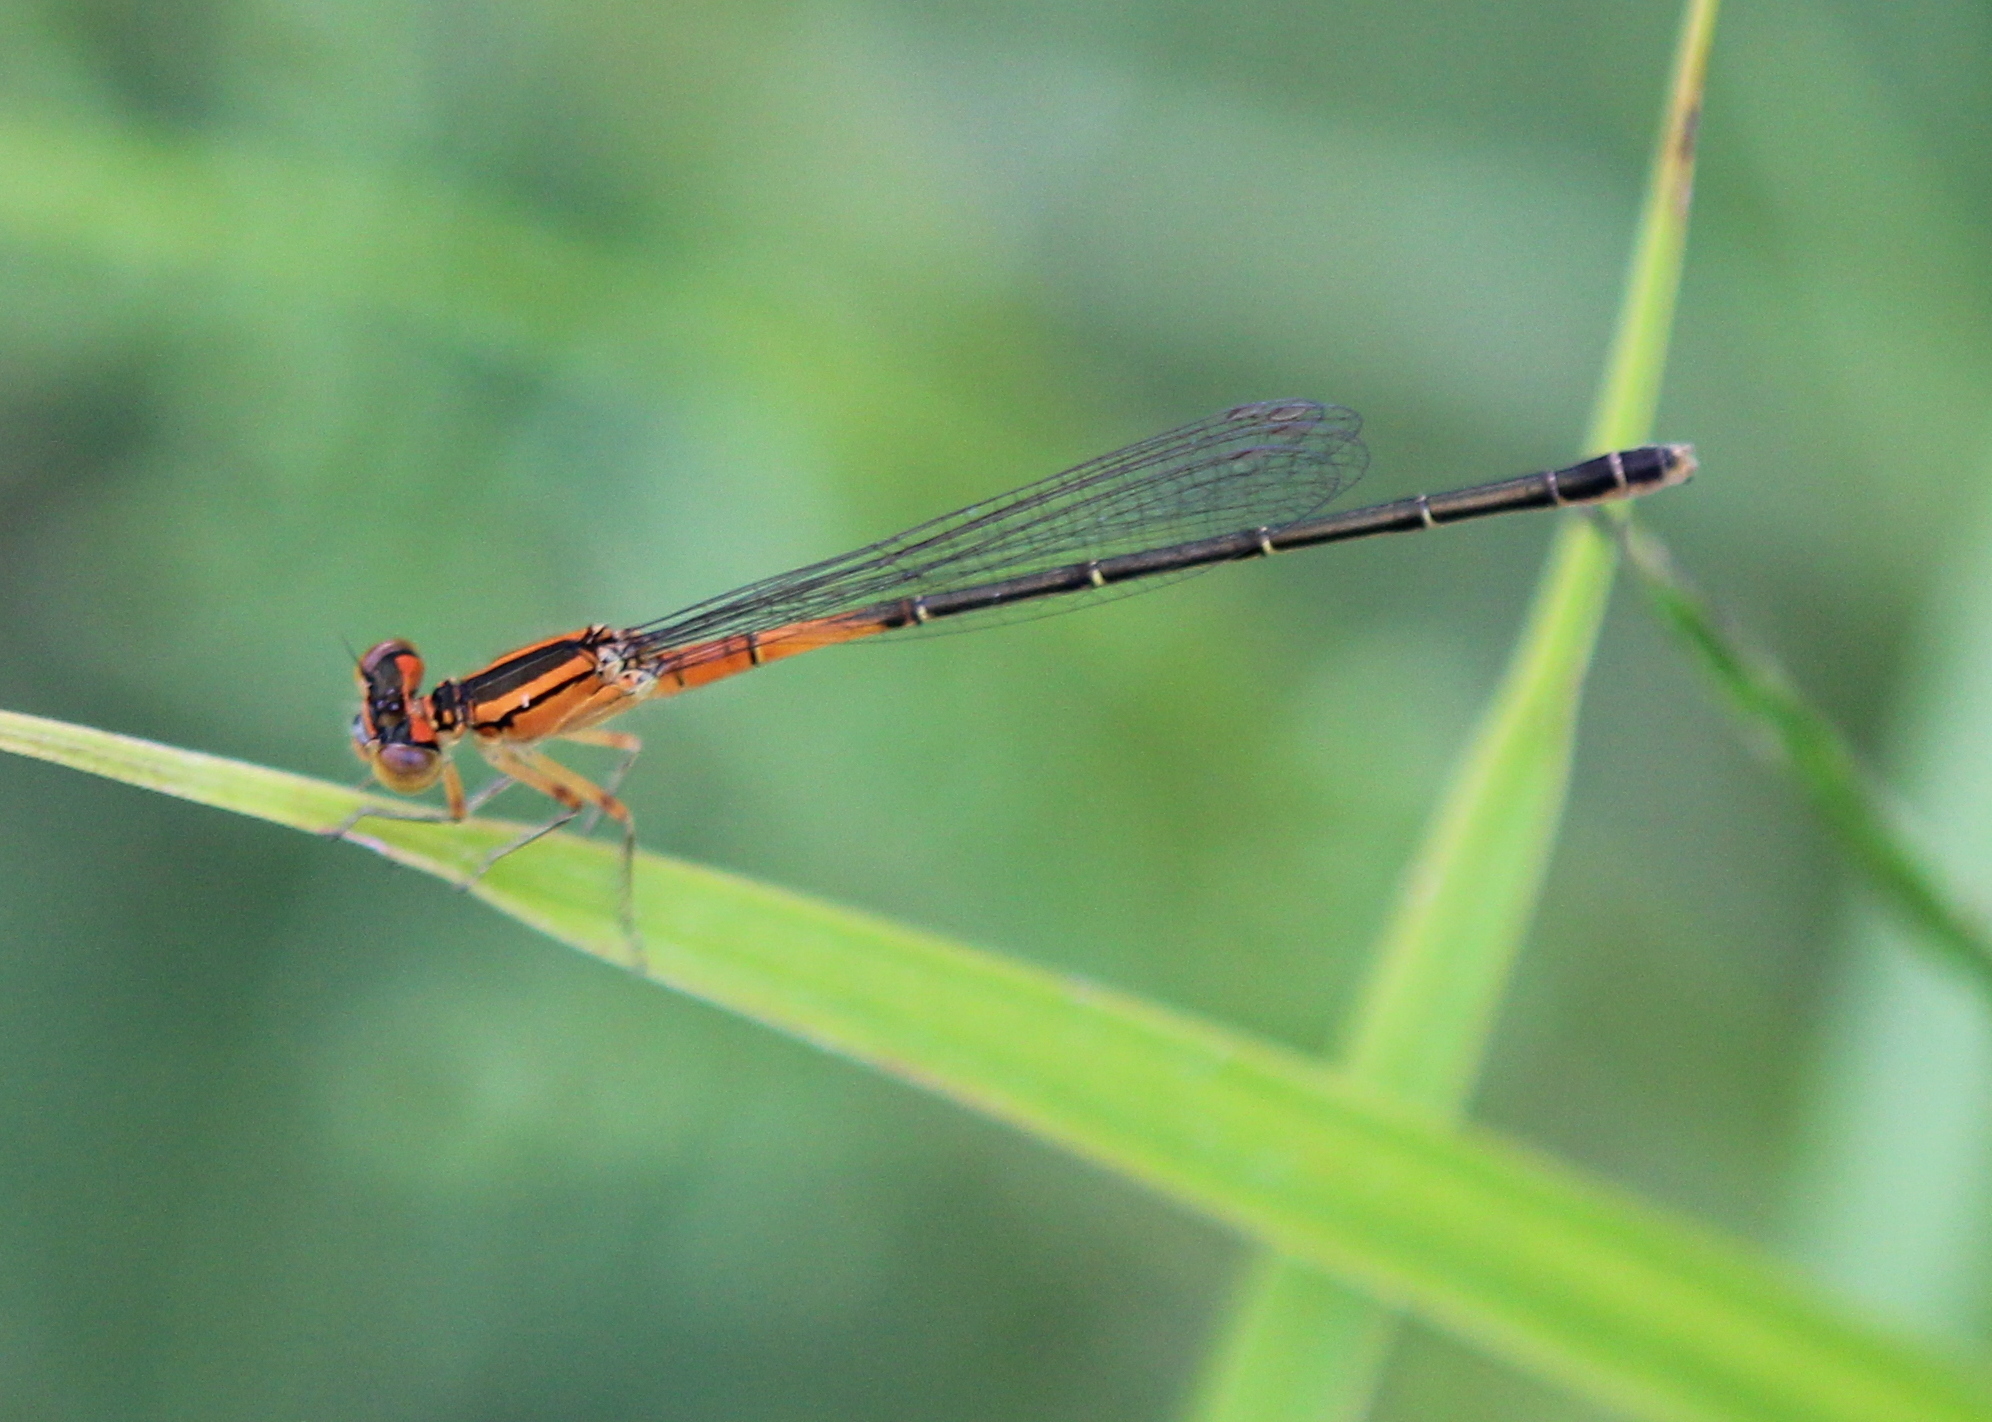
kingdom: Animalia
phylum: Arthropoda
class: Insecta
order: Odonata
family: Coenagrionidae
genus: Ischnura
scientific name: Ischnura verticalis
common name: Eastern forktail
